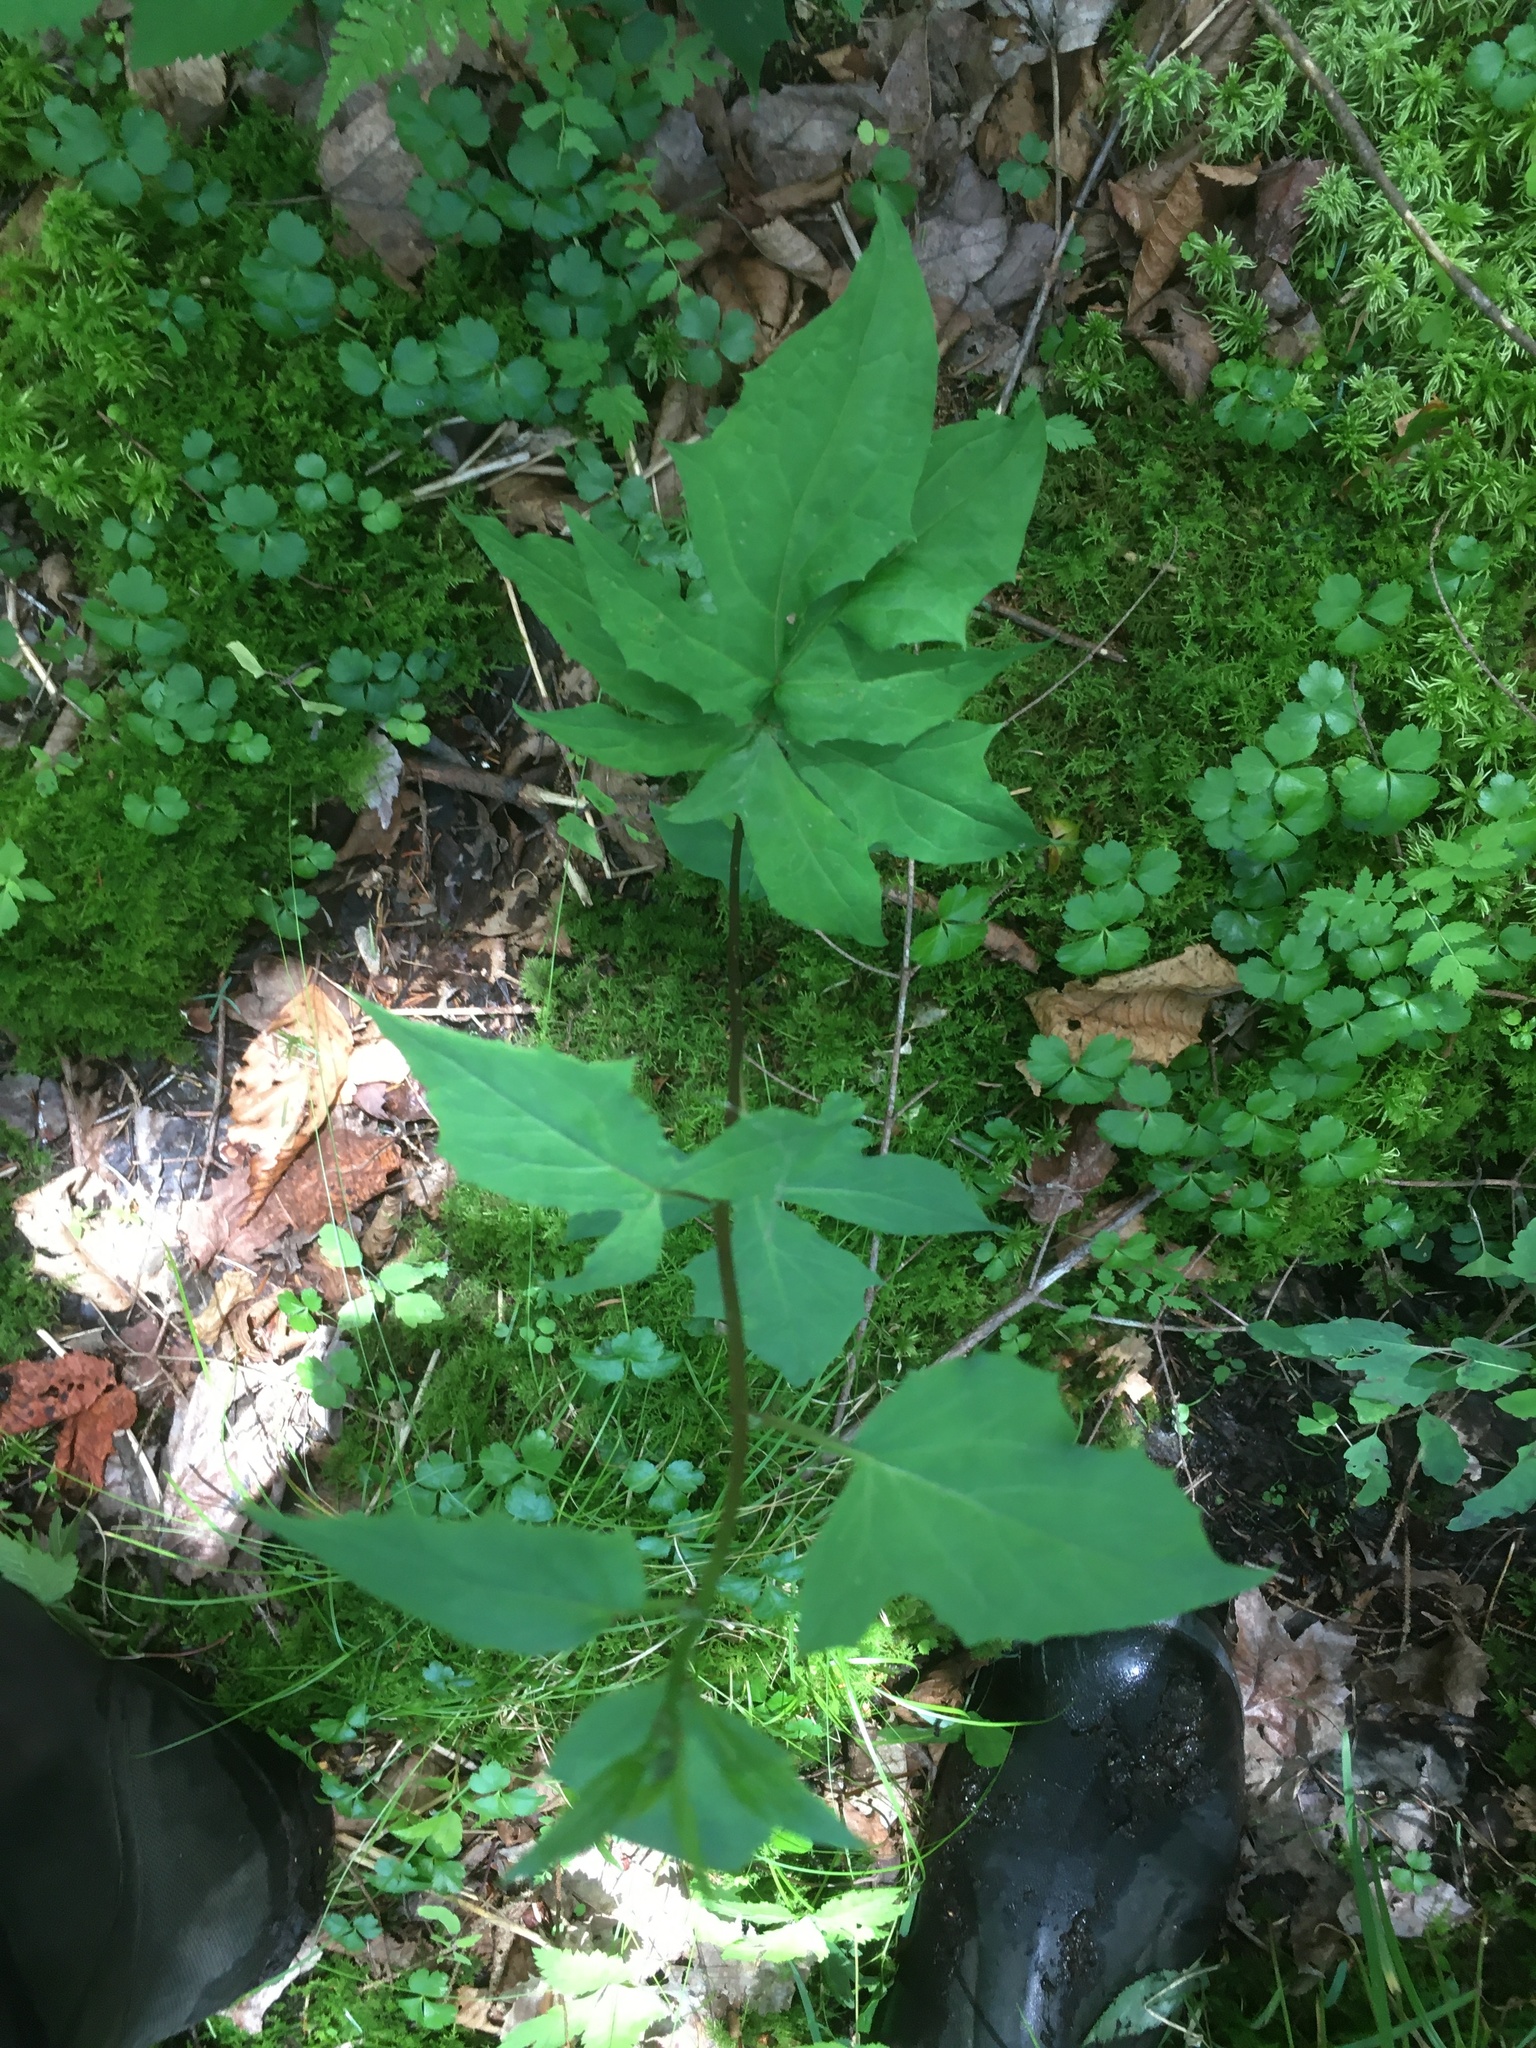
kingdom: Plantae
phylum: Tracheophyta
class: Magnoliopsida
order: Asterales
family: Asteraceae
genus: Nabalus
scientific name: Nabalus altissima
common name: Tall rattlesnakeroot
